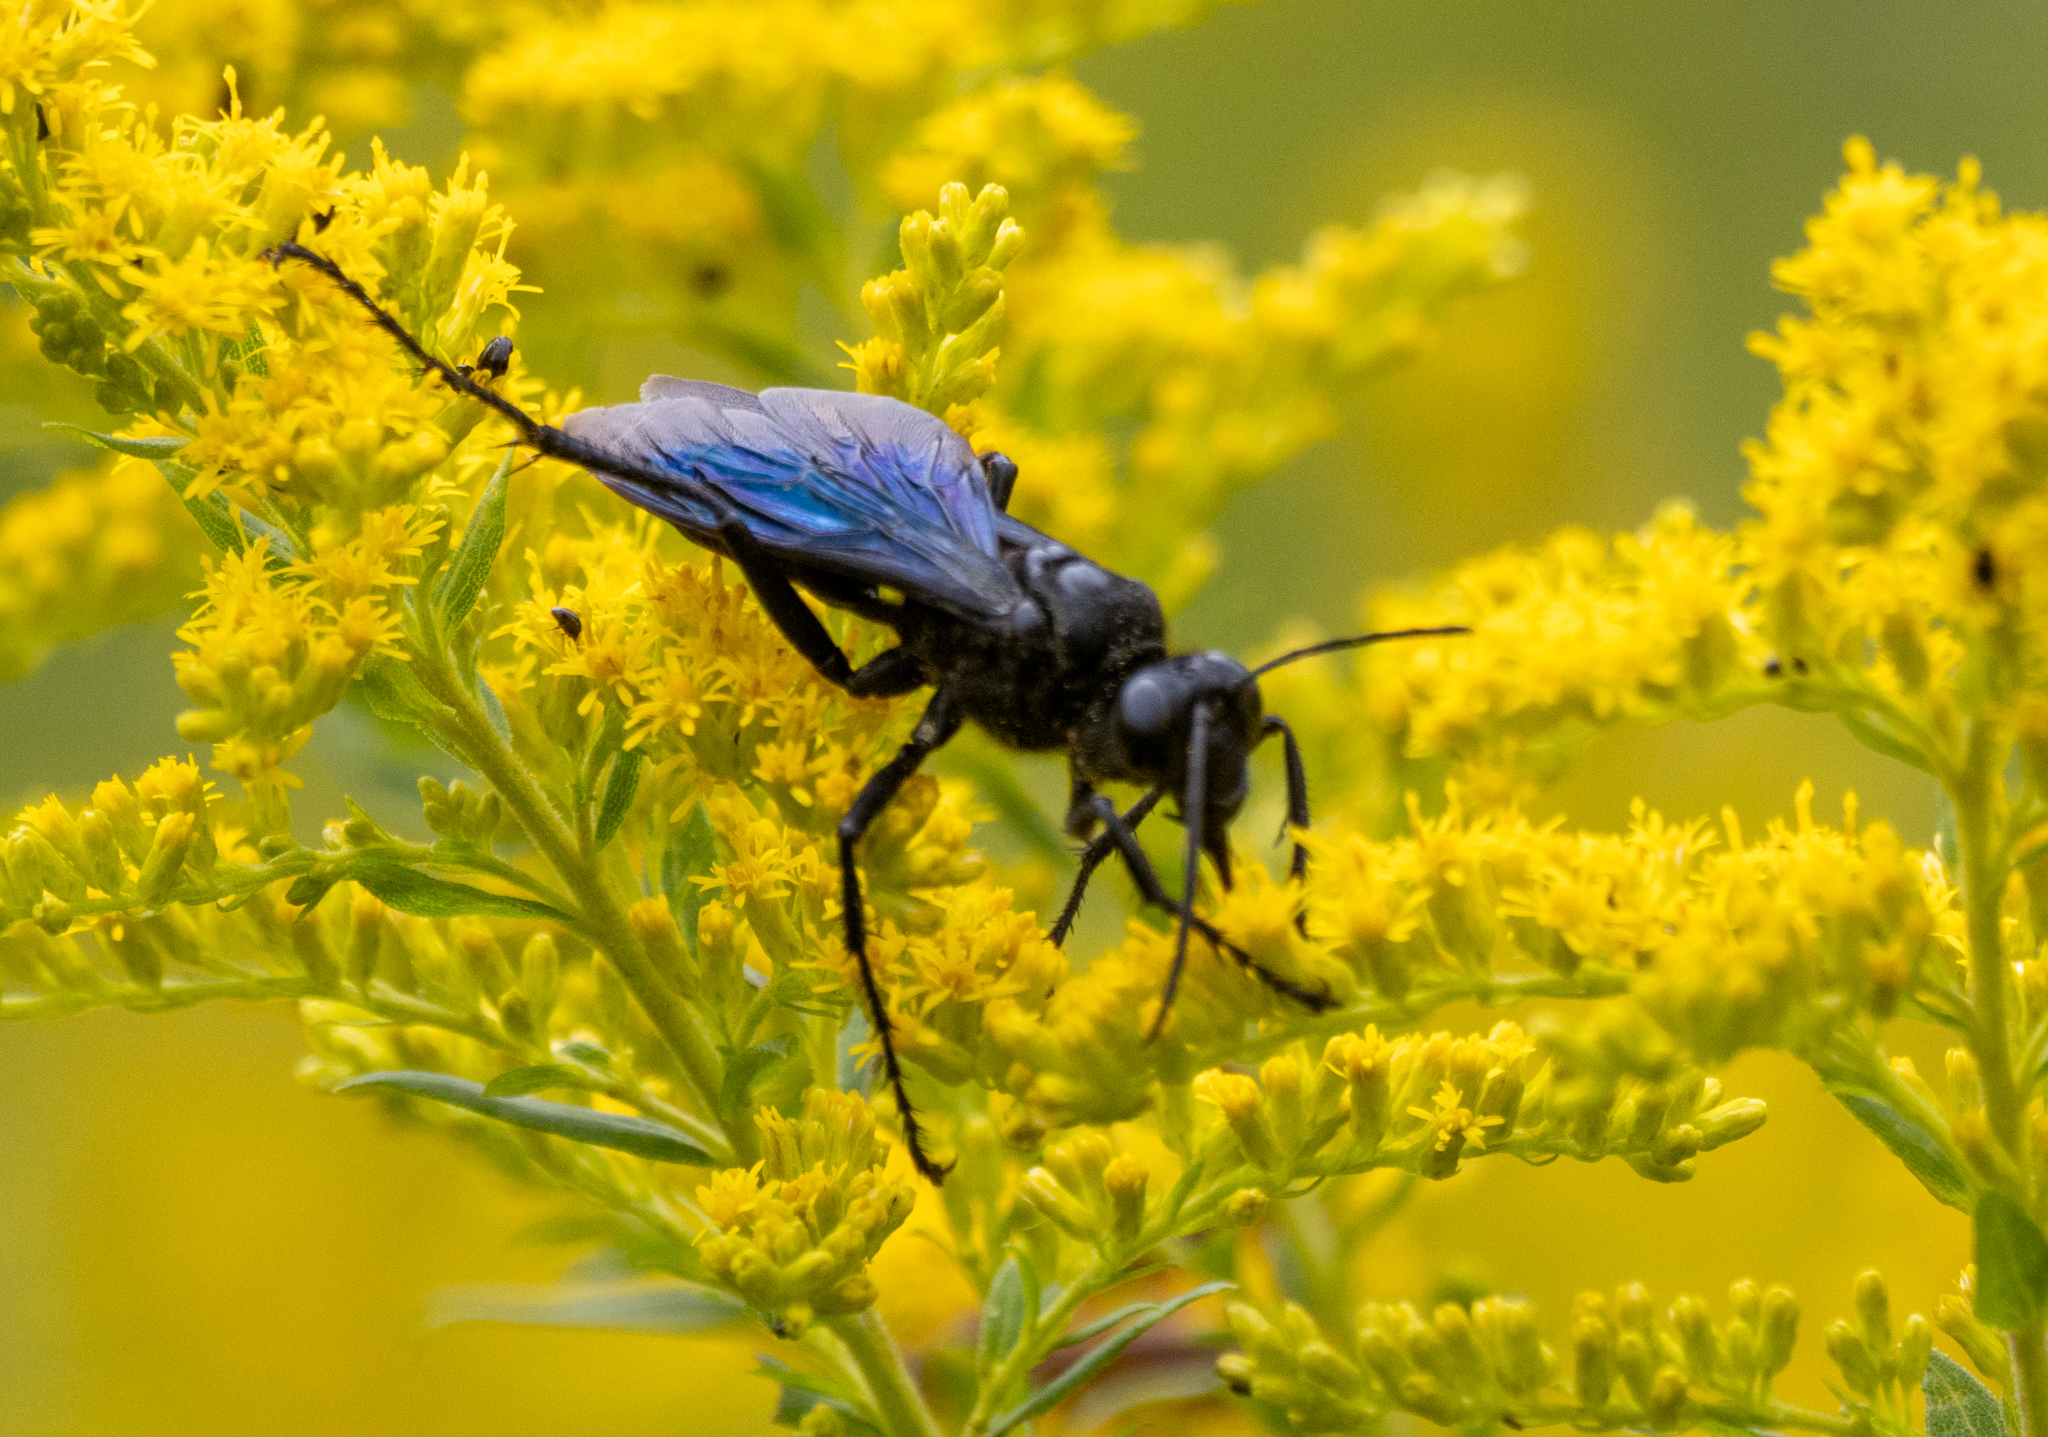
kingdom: Animalia
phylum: Arthropoda
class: Insecta
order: Hymenoptera
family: Sphecidae
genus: Sphex
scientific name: Sphex pensylvanicus
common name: Great black digger wasp
